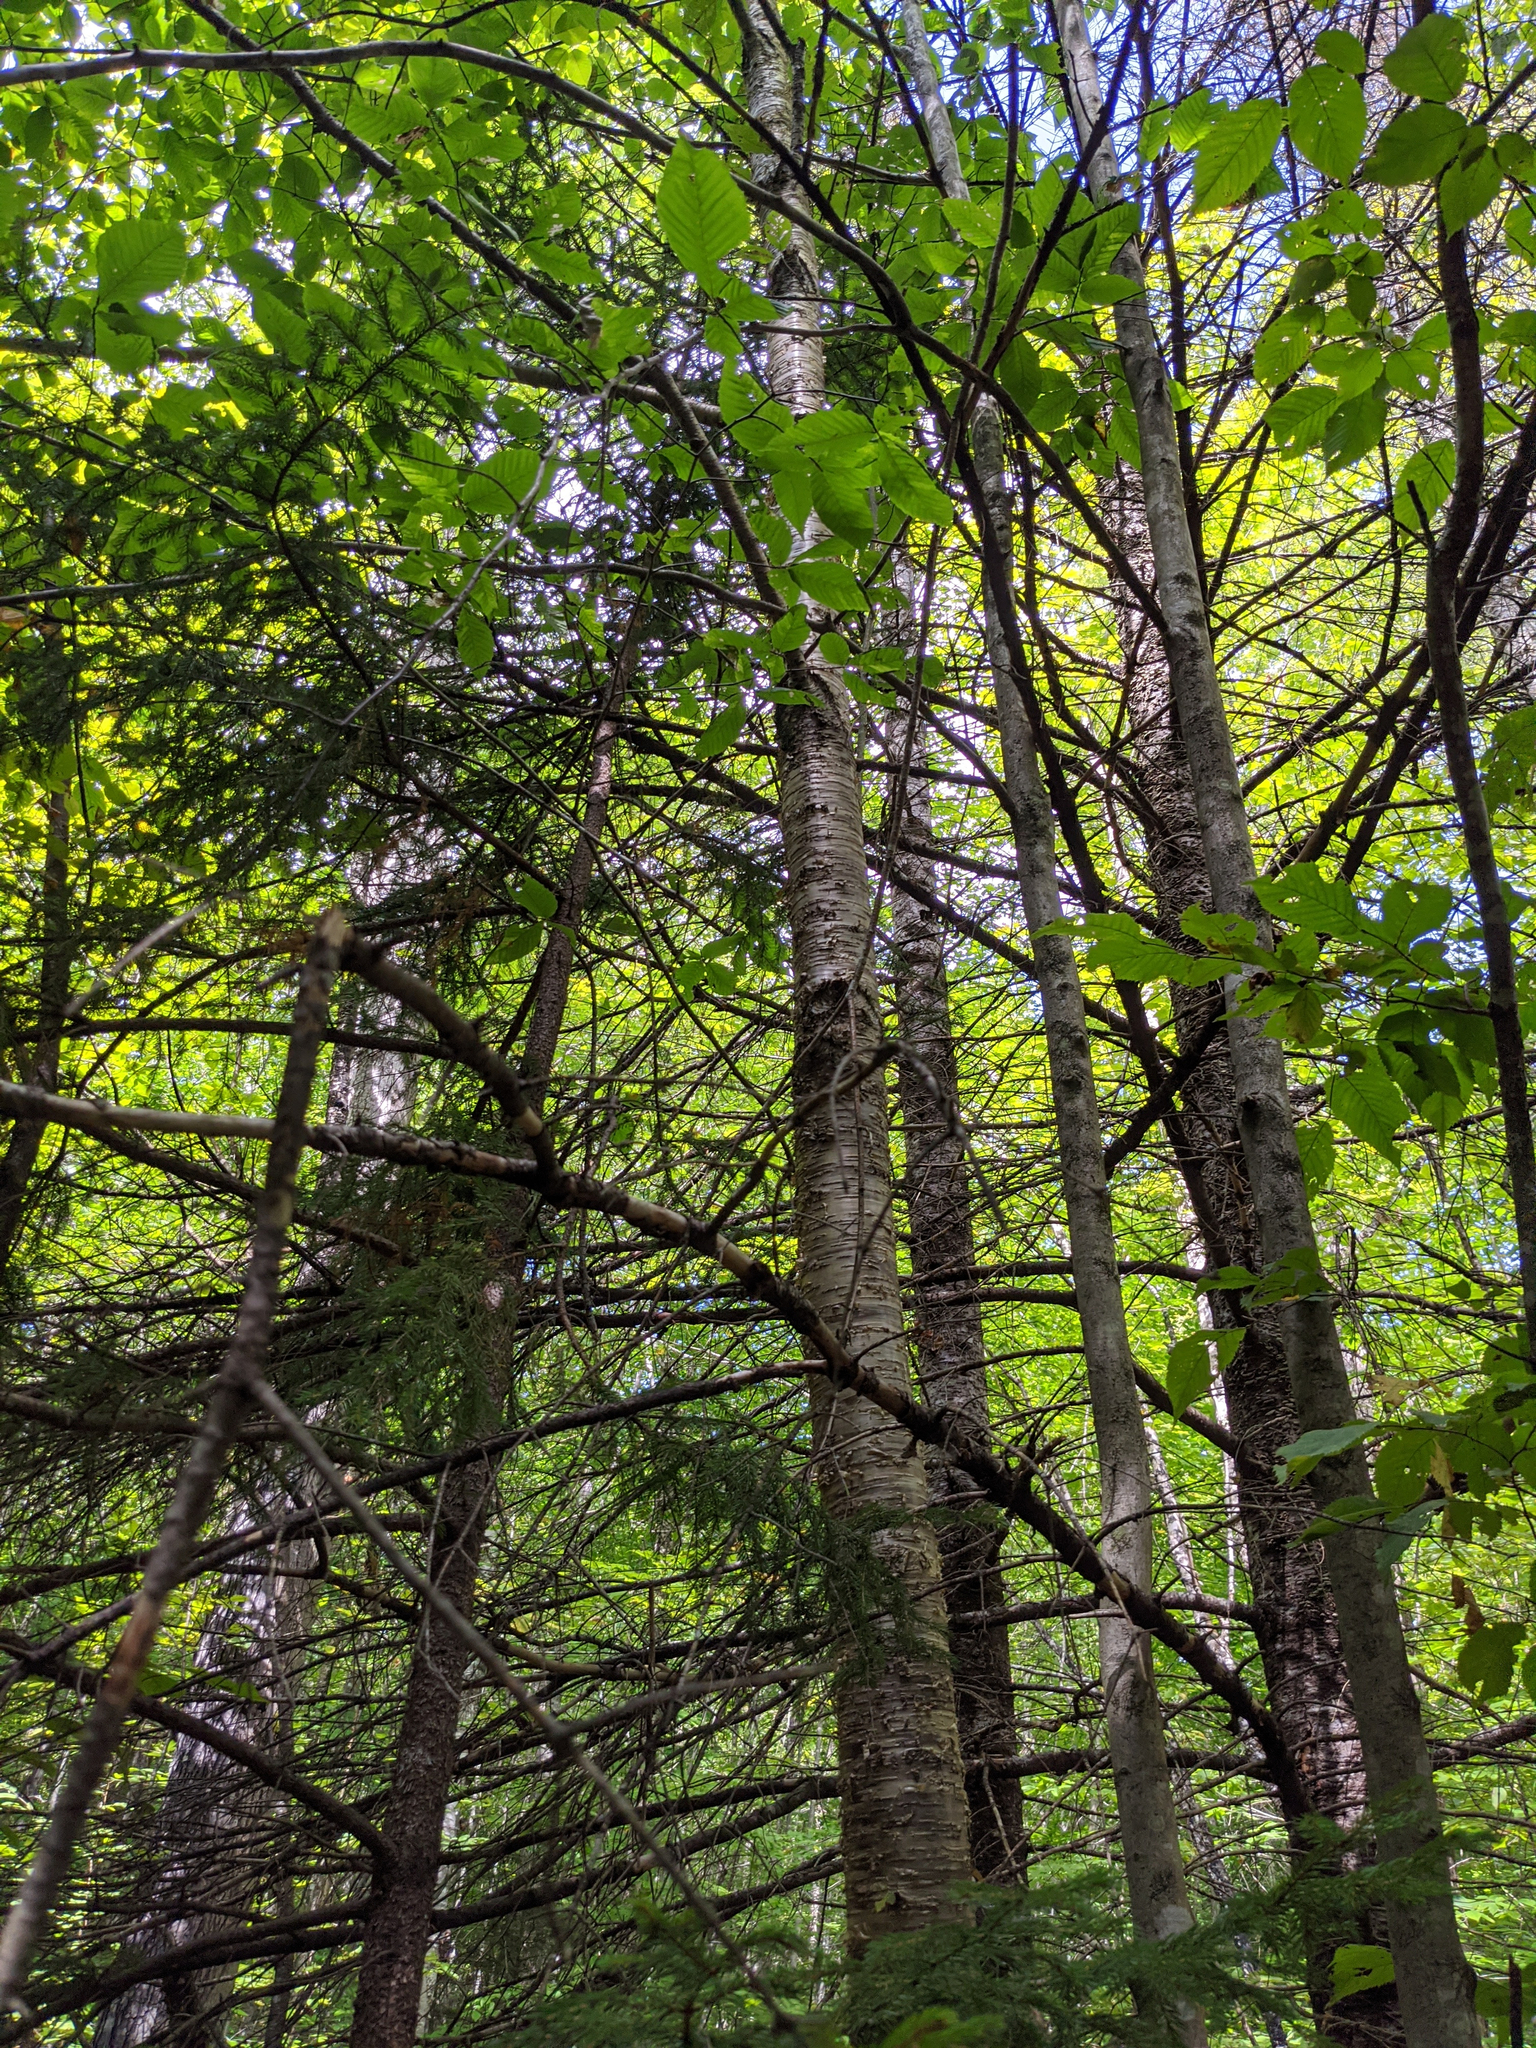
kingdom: Plantae
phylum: Tracheophyta
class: Magnoliopsida
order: Fagales
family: Betulaceae
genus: Betula
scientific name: Betula alleghaniensis
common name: Yellow birch
